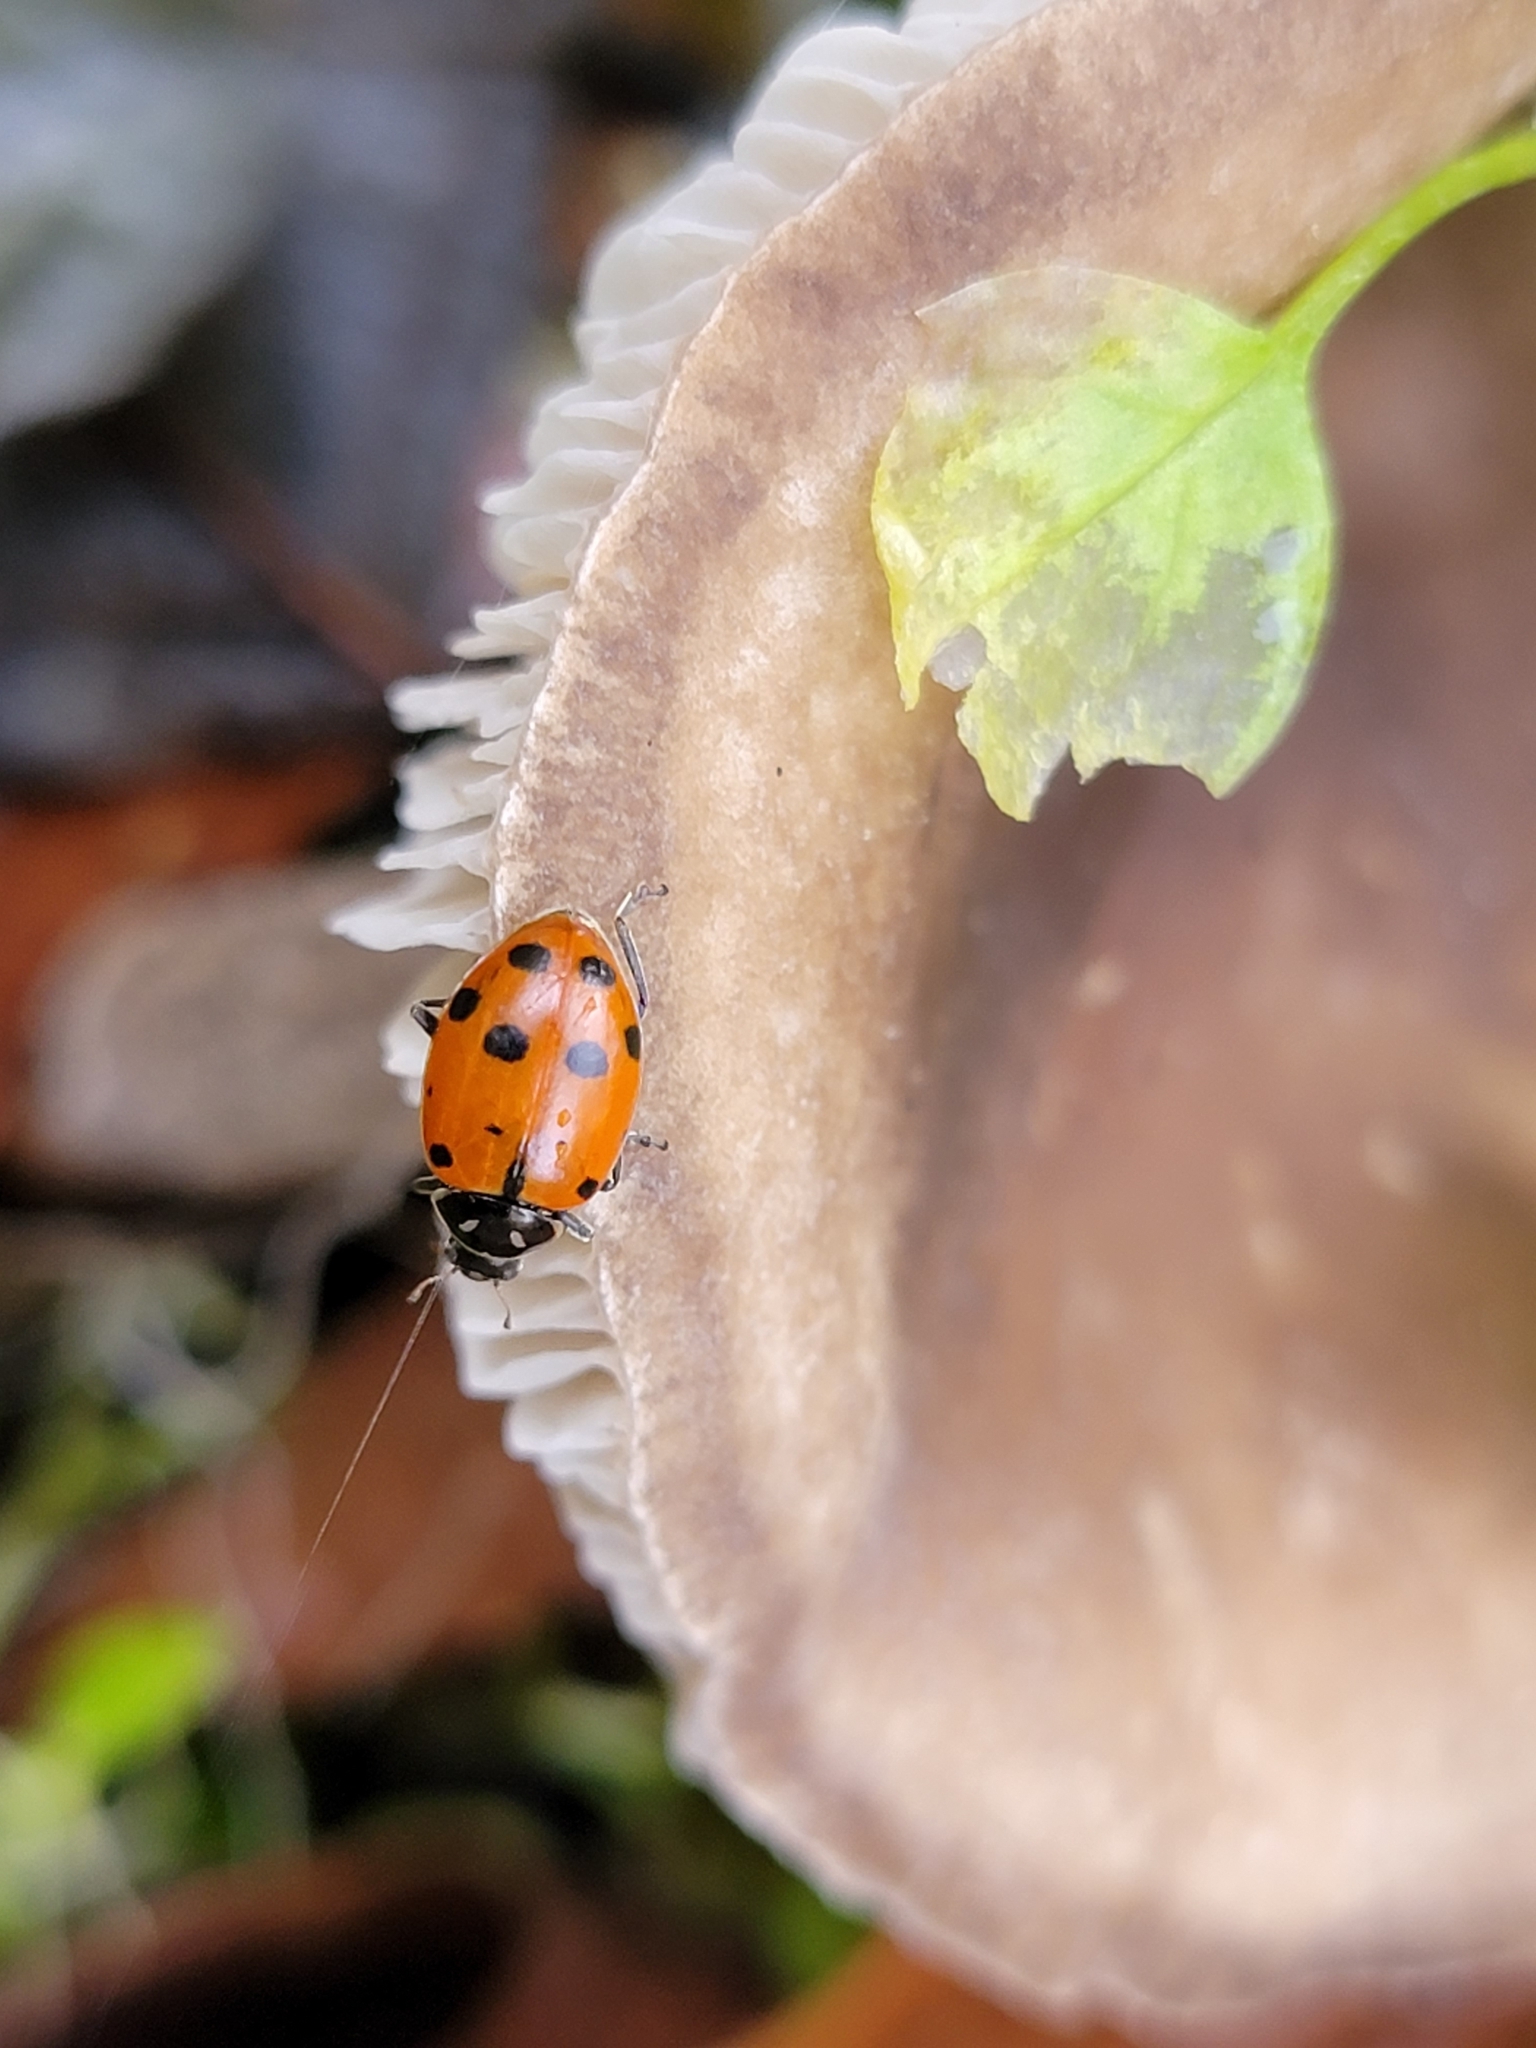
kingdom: Animalia
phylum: Arthropoda
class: Insecta
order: Coleoptera
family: Coccinellidae
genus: Hippodamia
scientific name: Hippodamia convergens
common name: Convergent lady beetle
